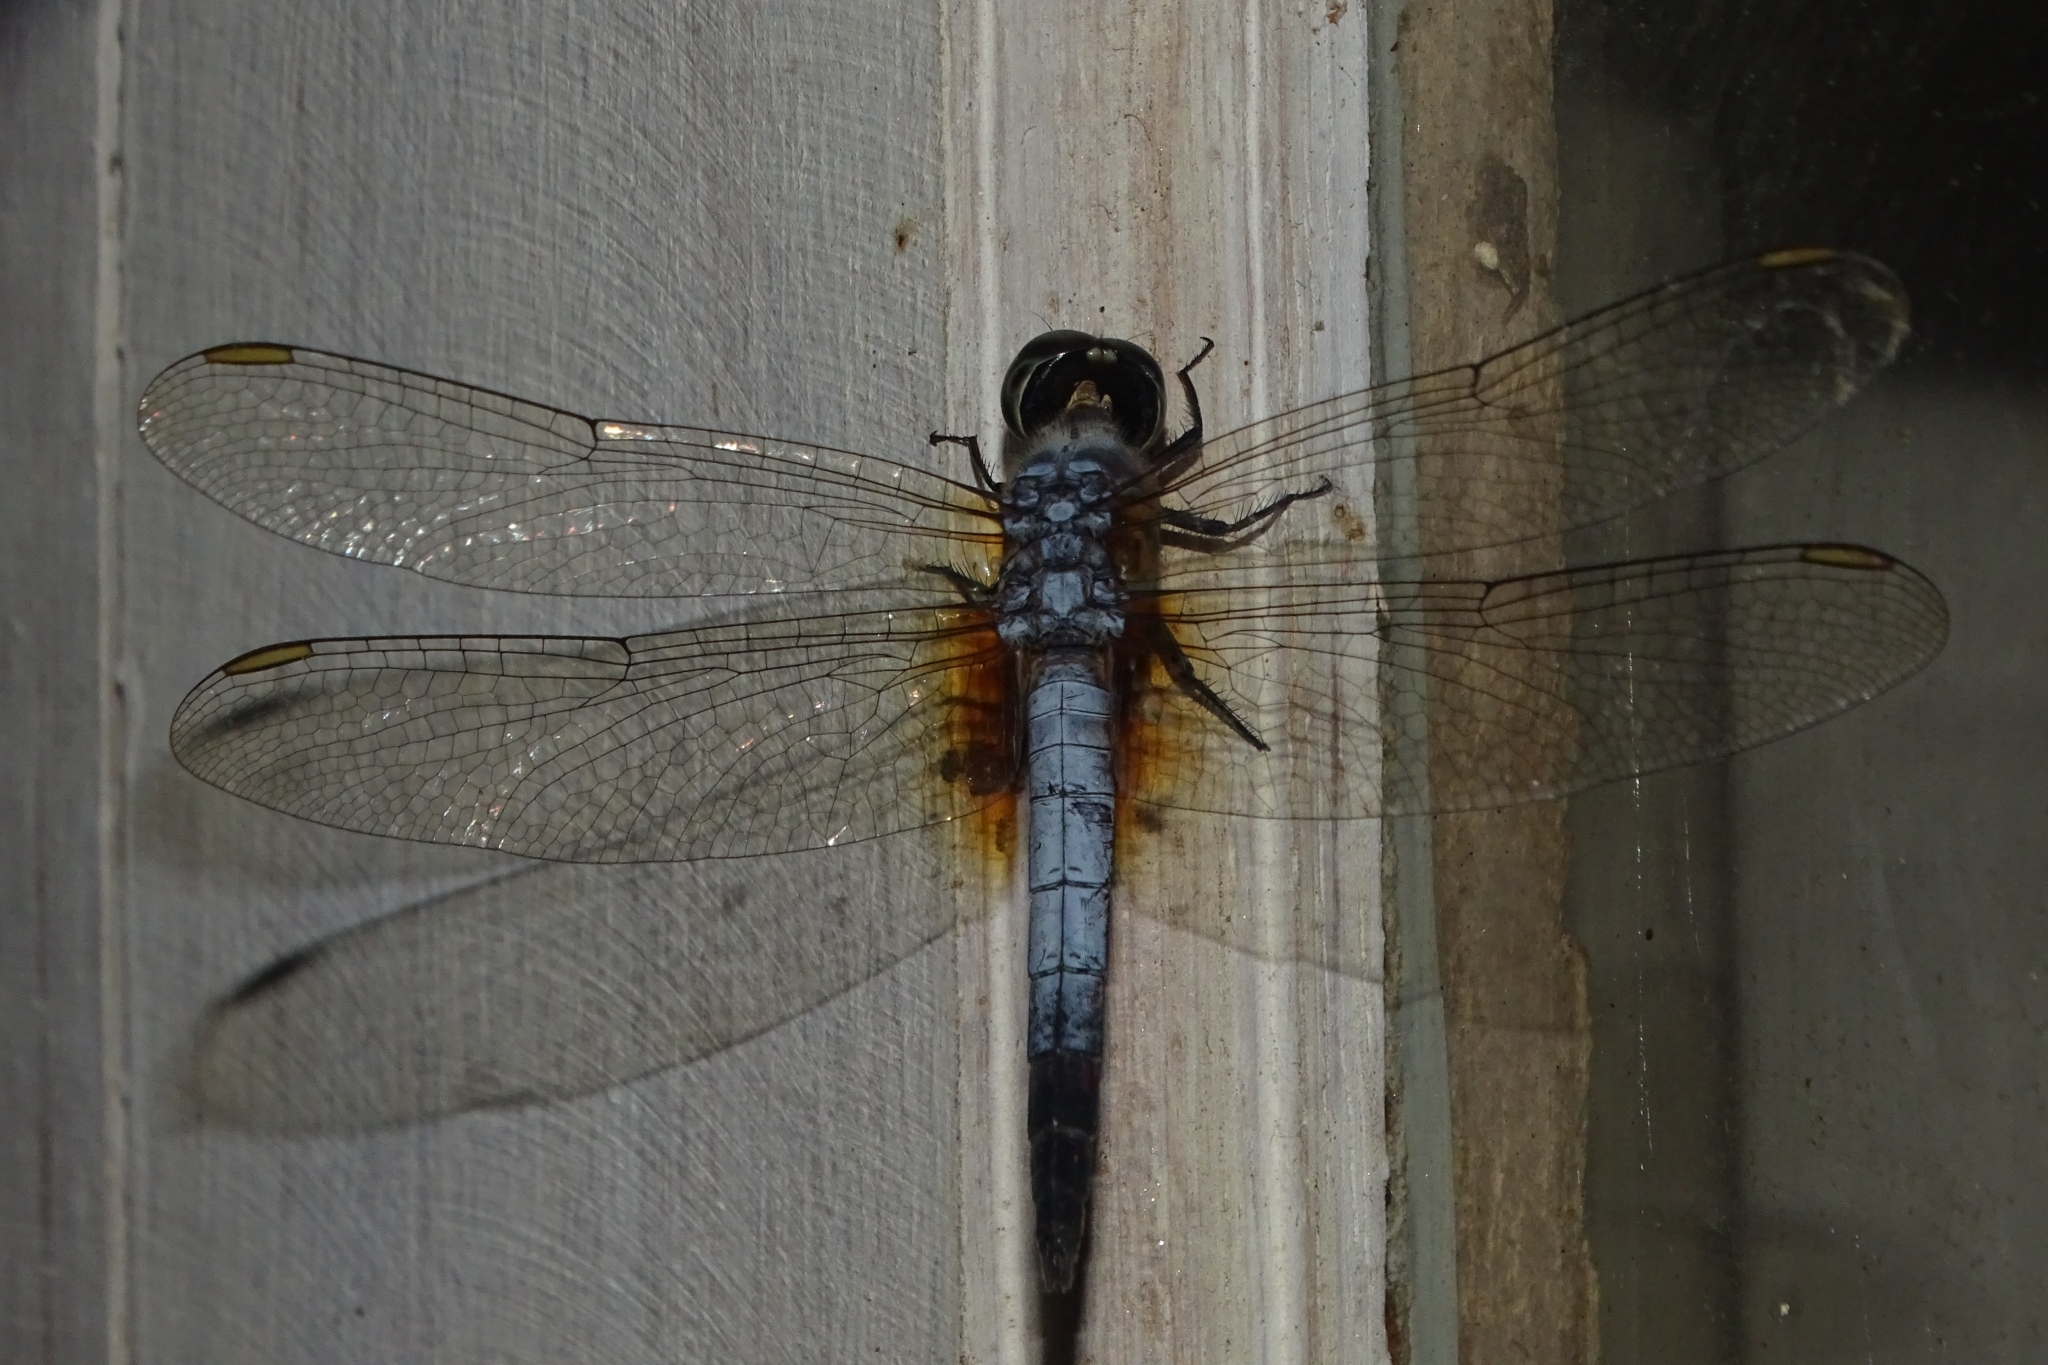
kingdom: Animalia
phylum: Arthropoda
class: Insecta
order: Odonata
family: Libellulidae
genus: Brachydiplax
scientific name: Brachydiplax chalybea
